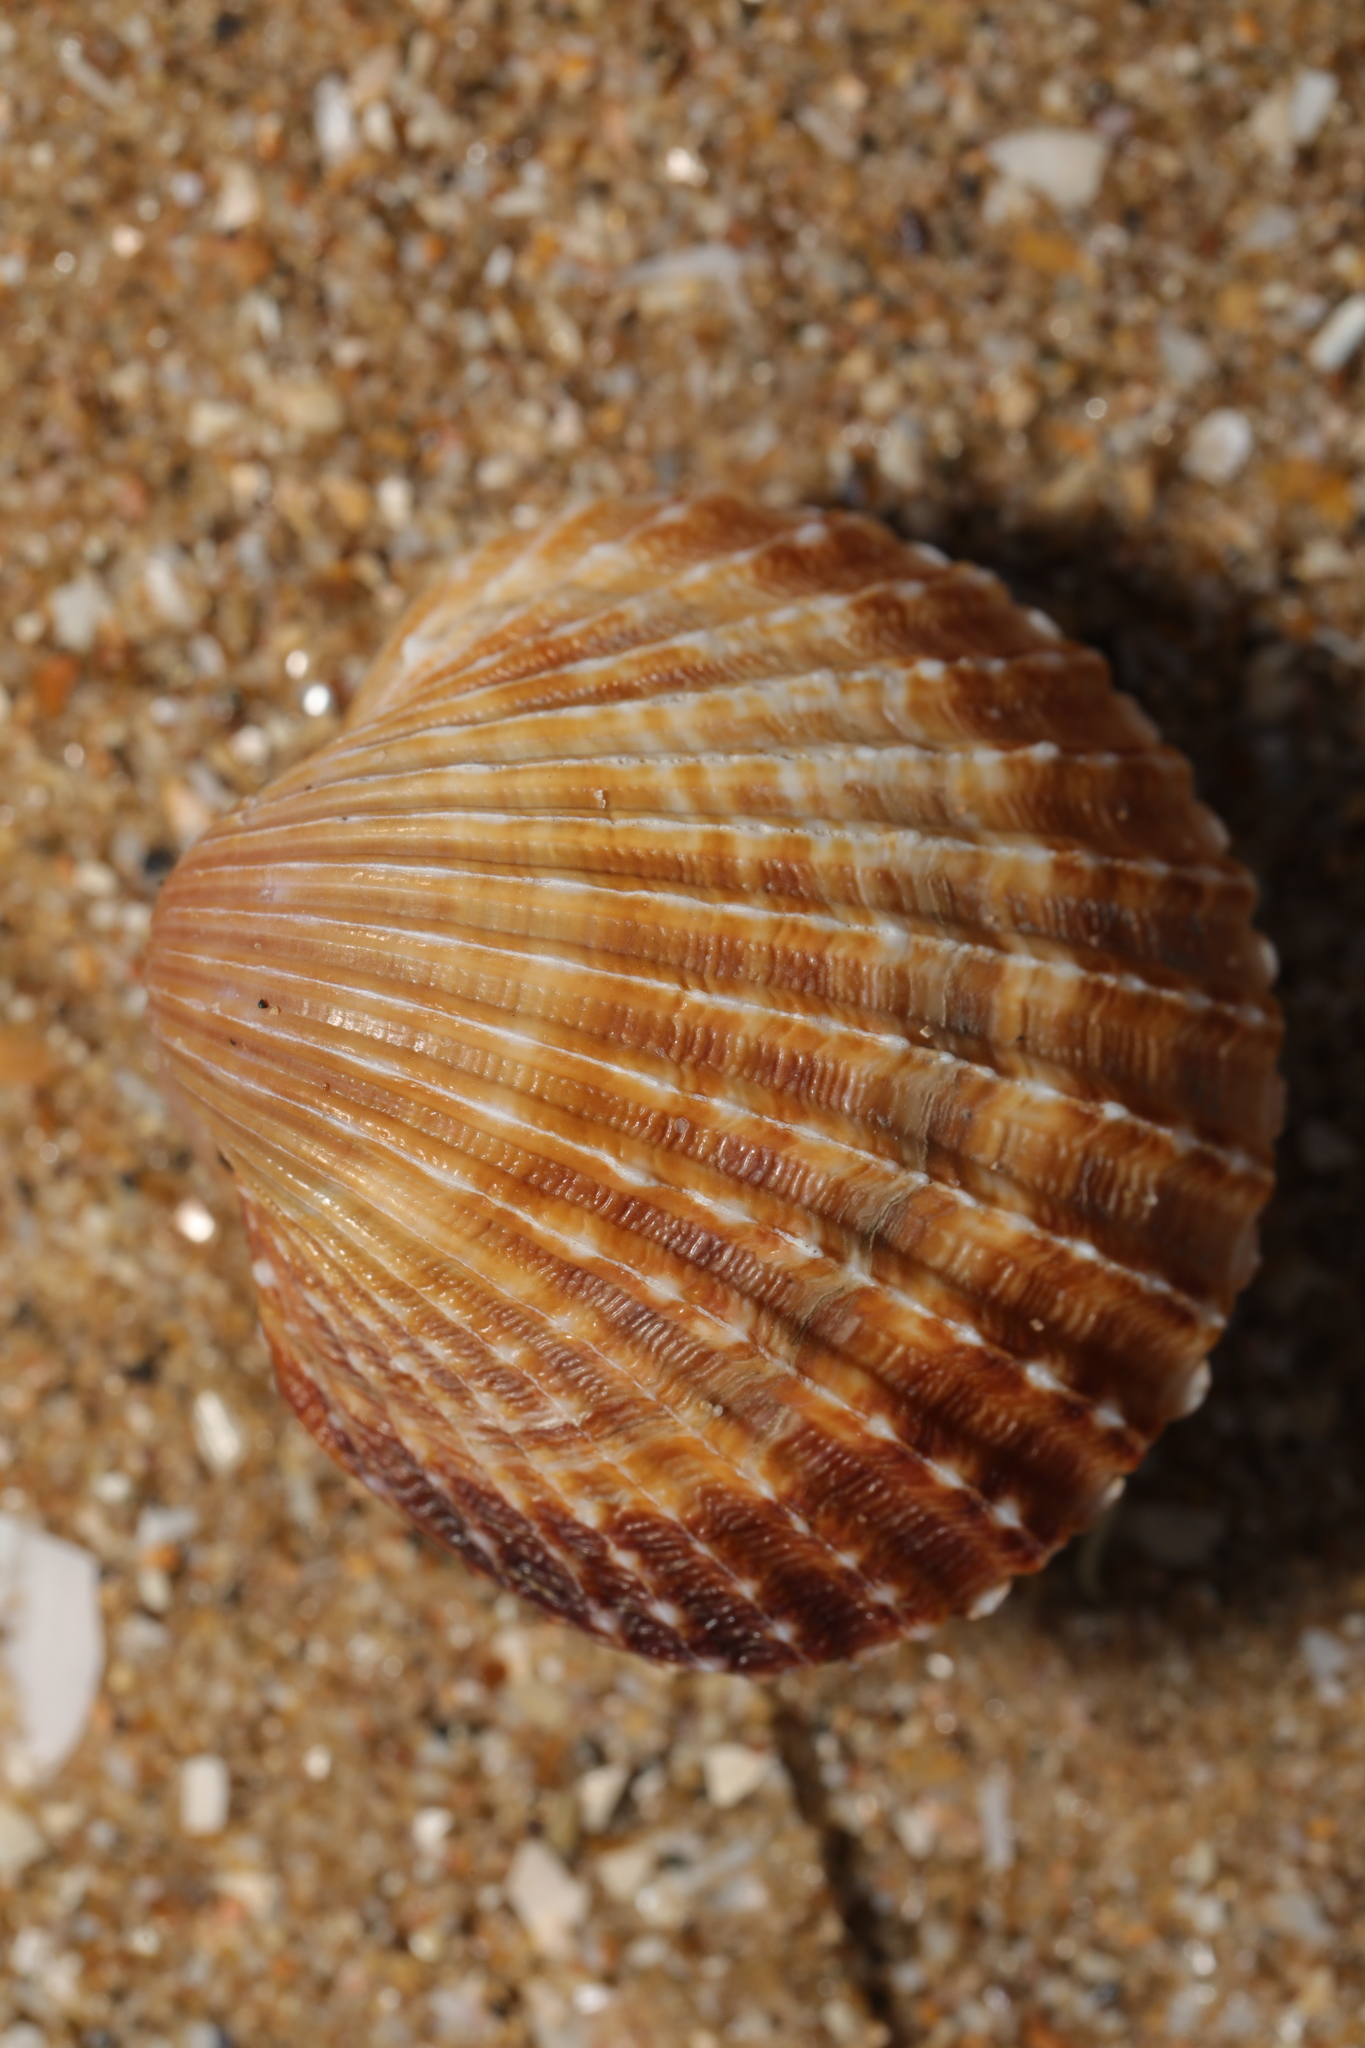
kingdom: Animalia
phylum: Mollusca
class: Bivalvia
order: Cardiida
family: Cardiidae
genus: Acanthocardia
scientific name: Acanthocardia echinata
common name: Prickly cockle
